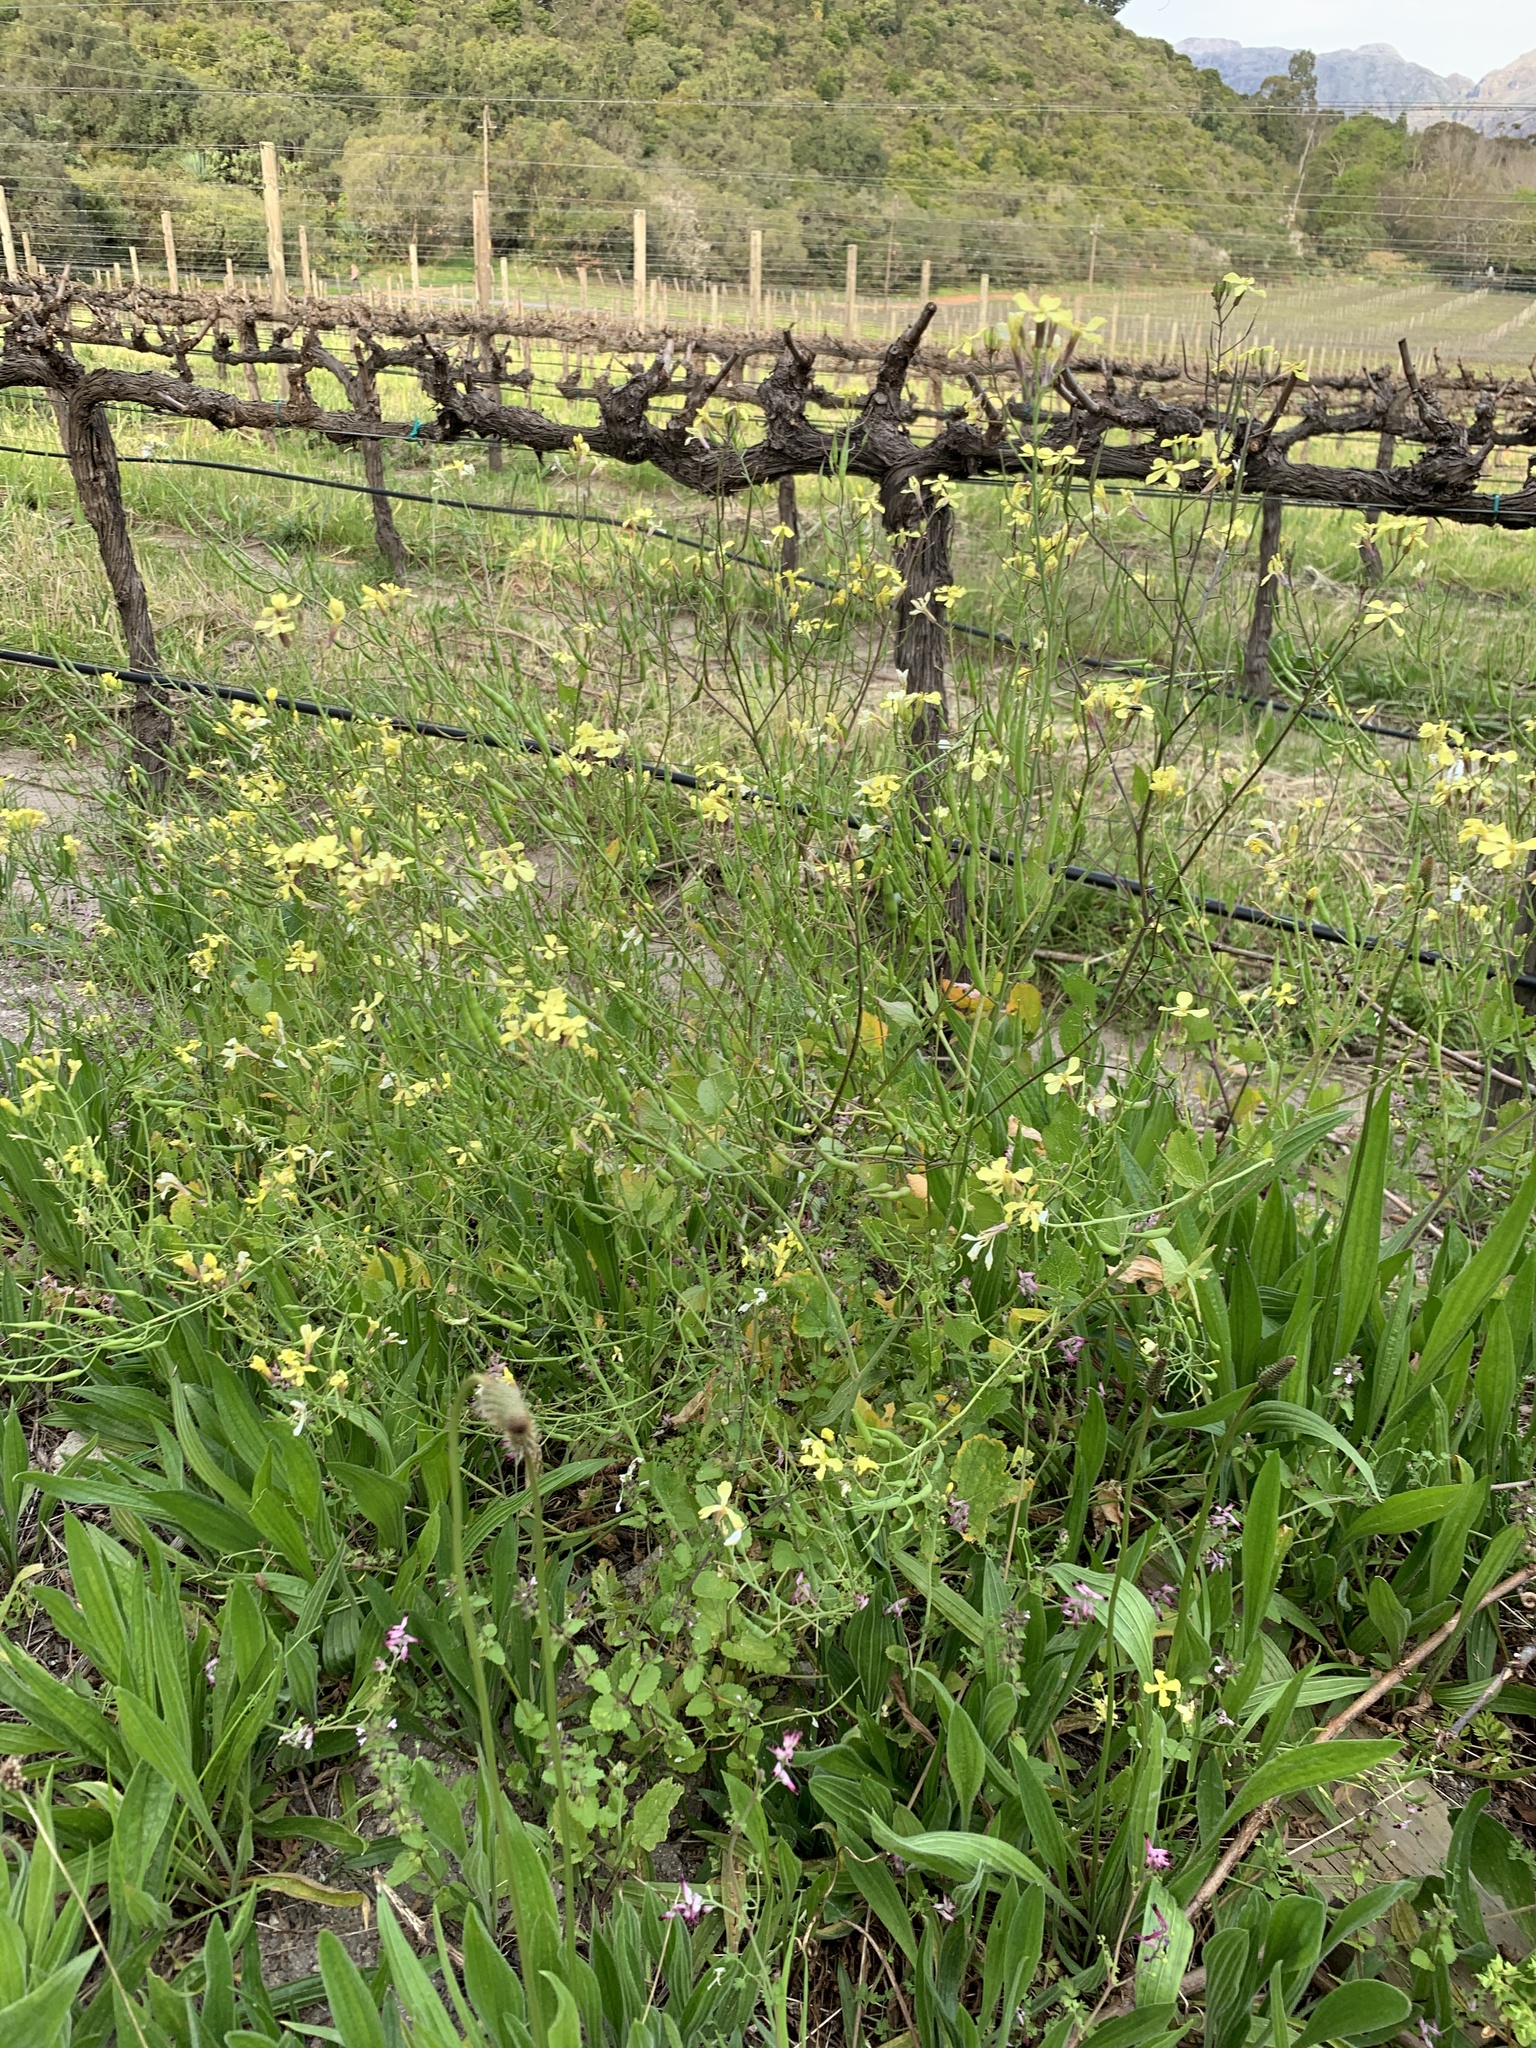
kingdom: Plantae
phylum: Tracheophyta
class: Magnoliopsida
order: Brassicales
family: Brassicaceae
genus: Raphanus
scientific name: Raphanus raphanistrum
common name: Wild radish
